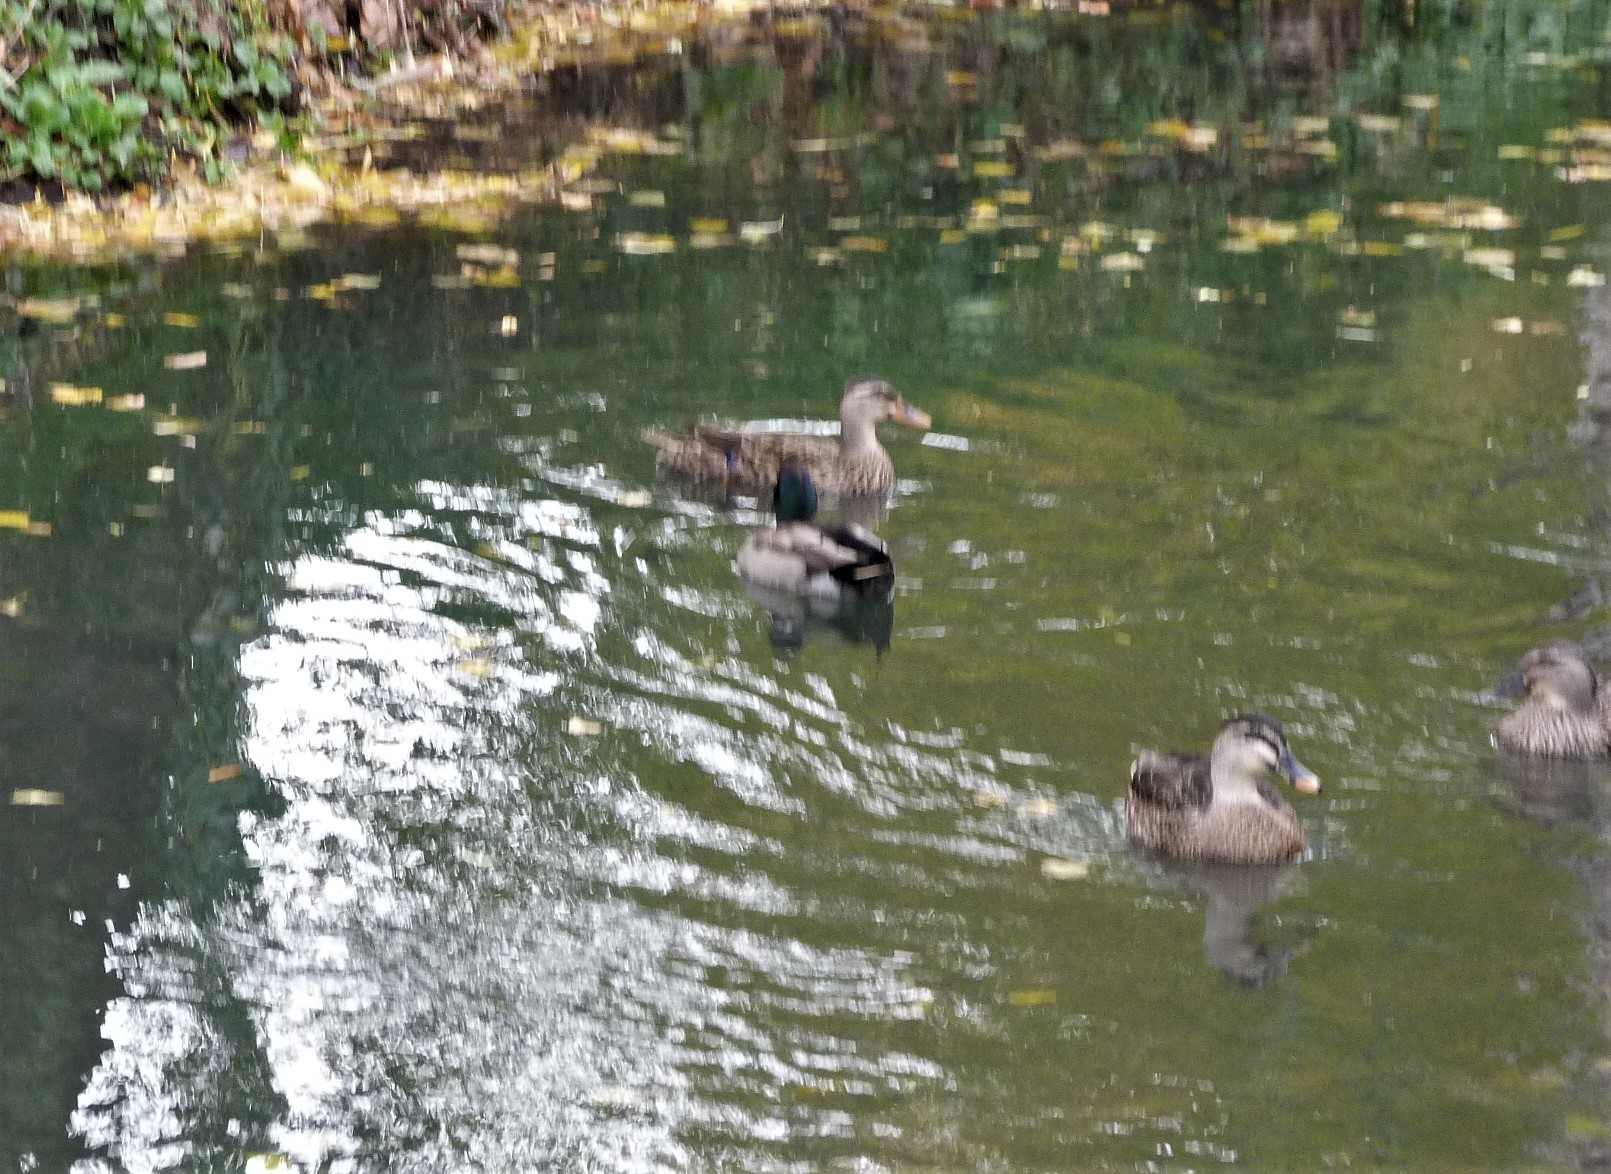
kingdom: Animalia
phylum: Chordata
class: Aves
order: Anseriformes
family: Anatidae
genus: Anas
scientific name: Anas
